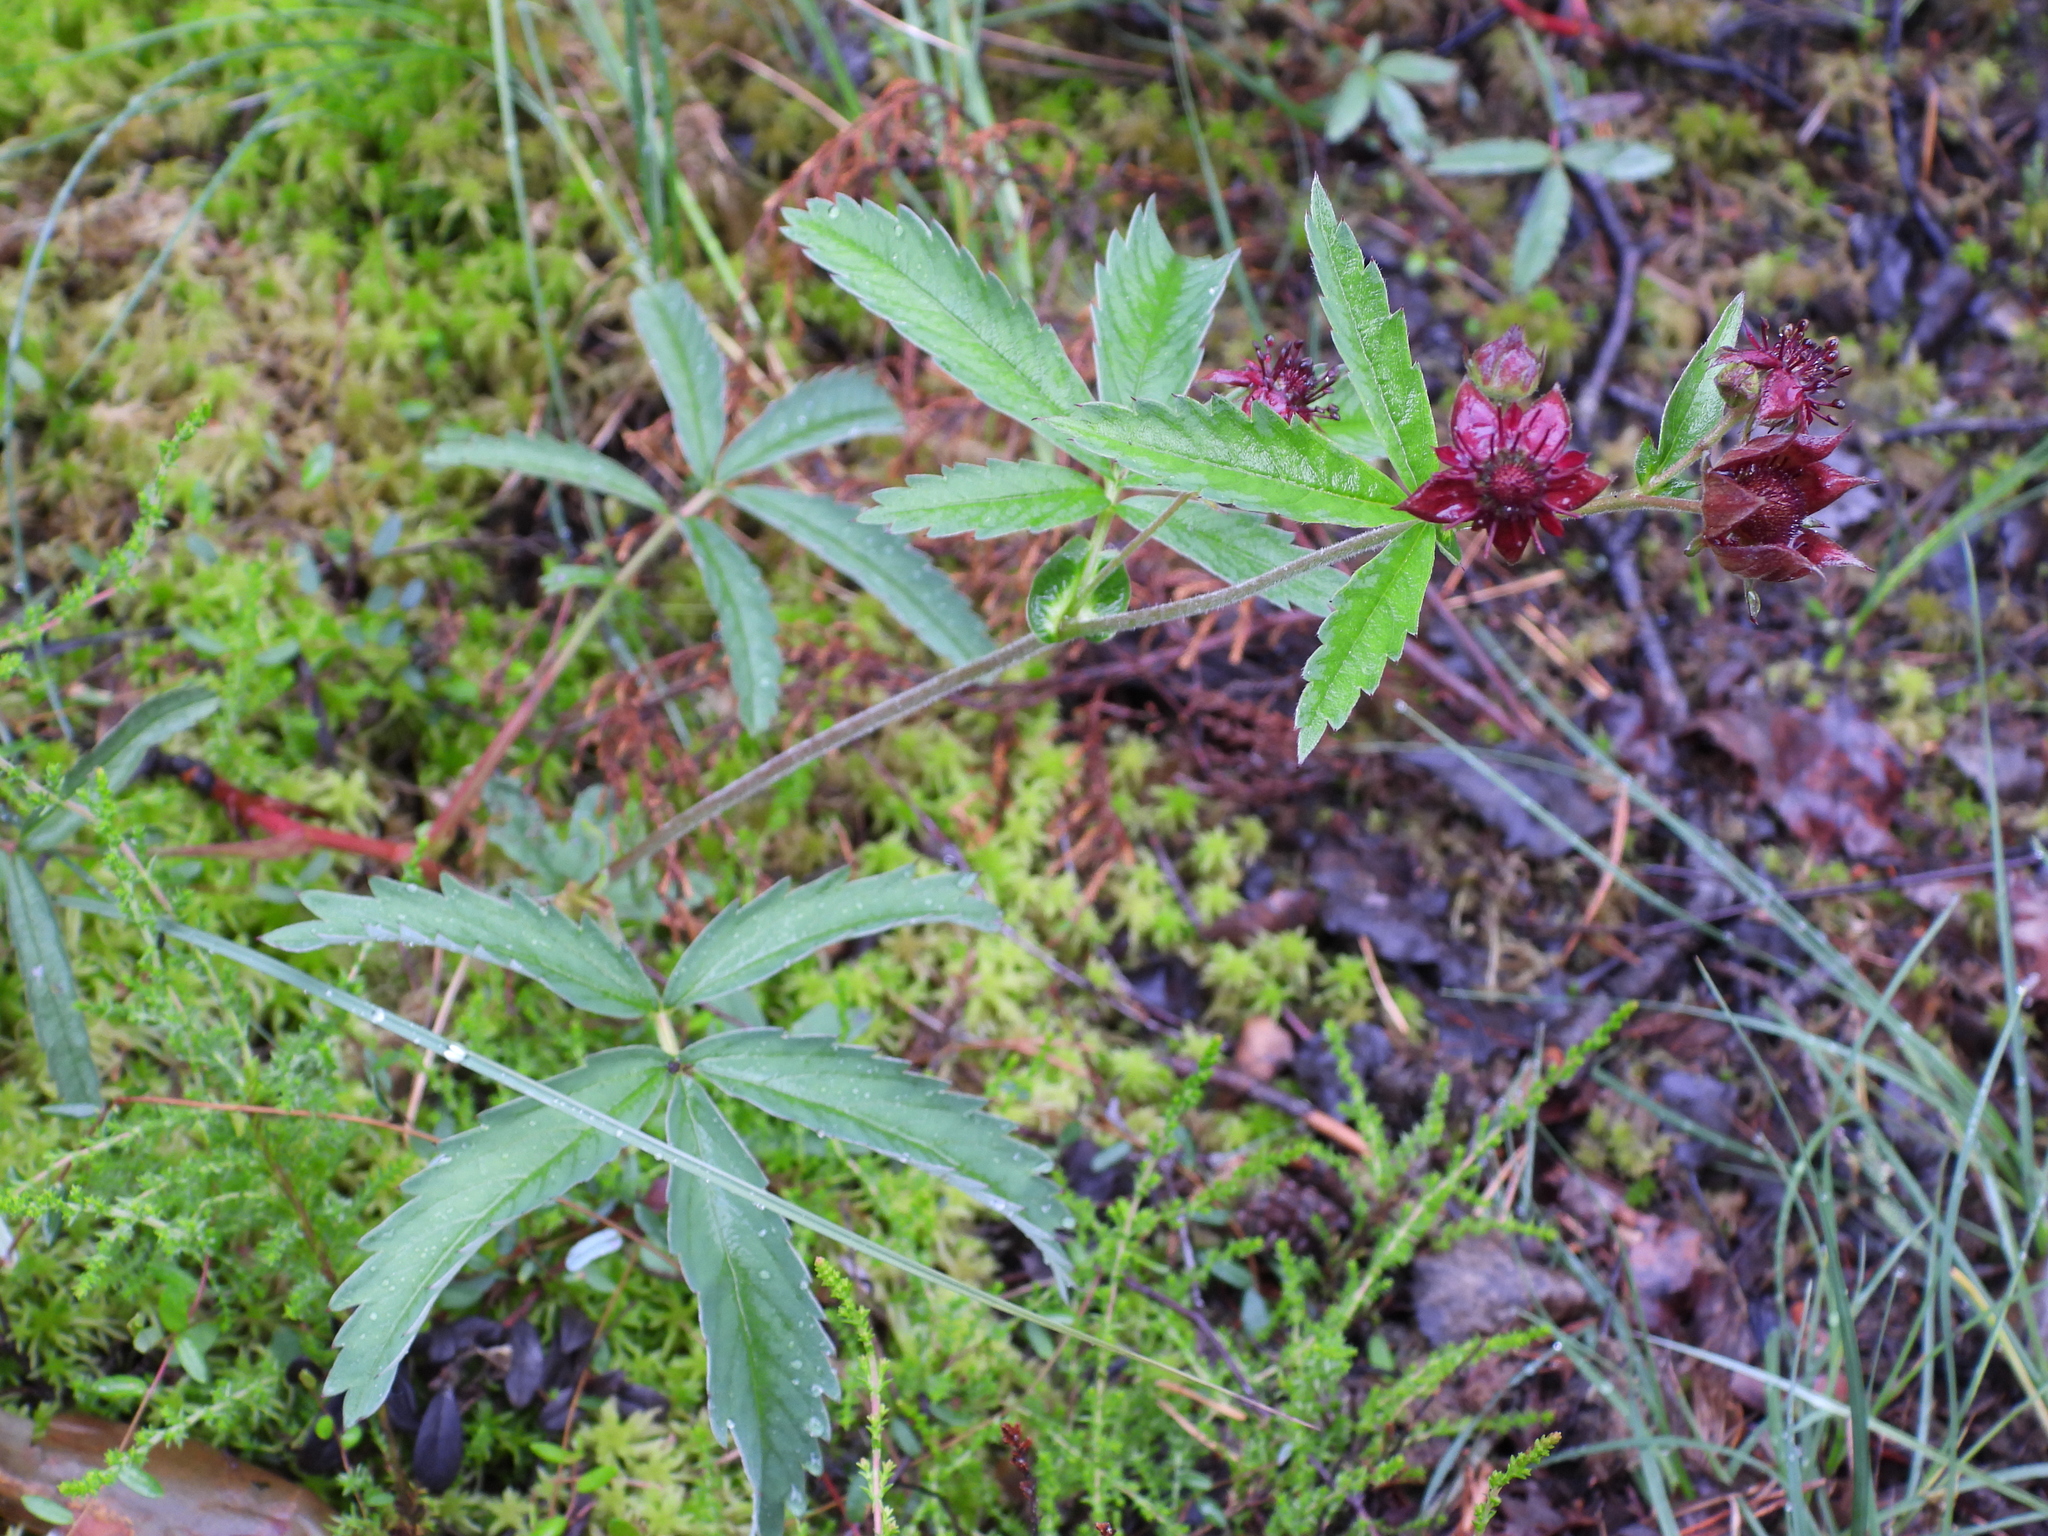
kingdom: Plantae
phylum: Tracheophyta
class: Magnoliopsida
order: Rosales
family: Rosaceae
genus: Comarum
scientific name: Comarum palustre
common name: Marsh cinquefoil
